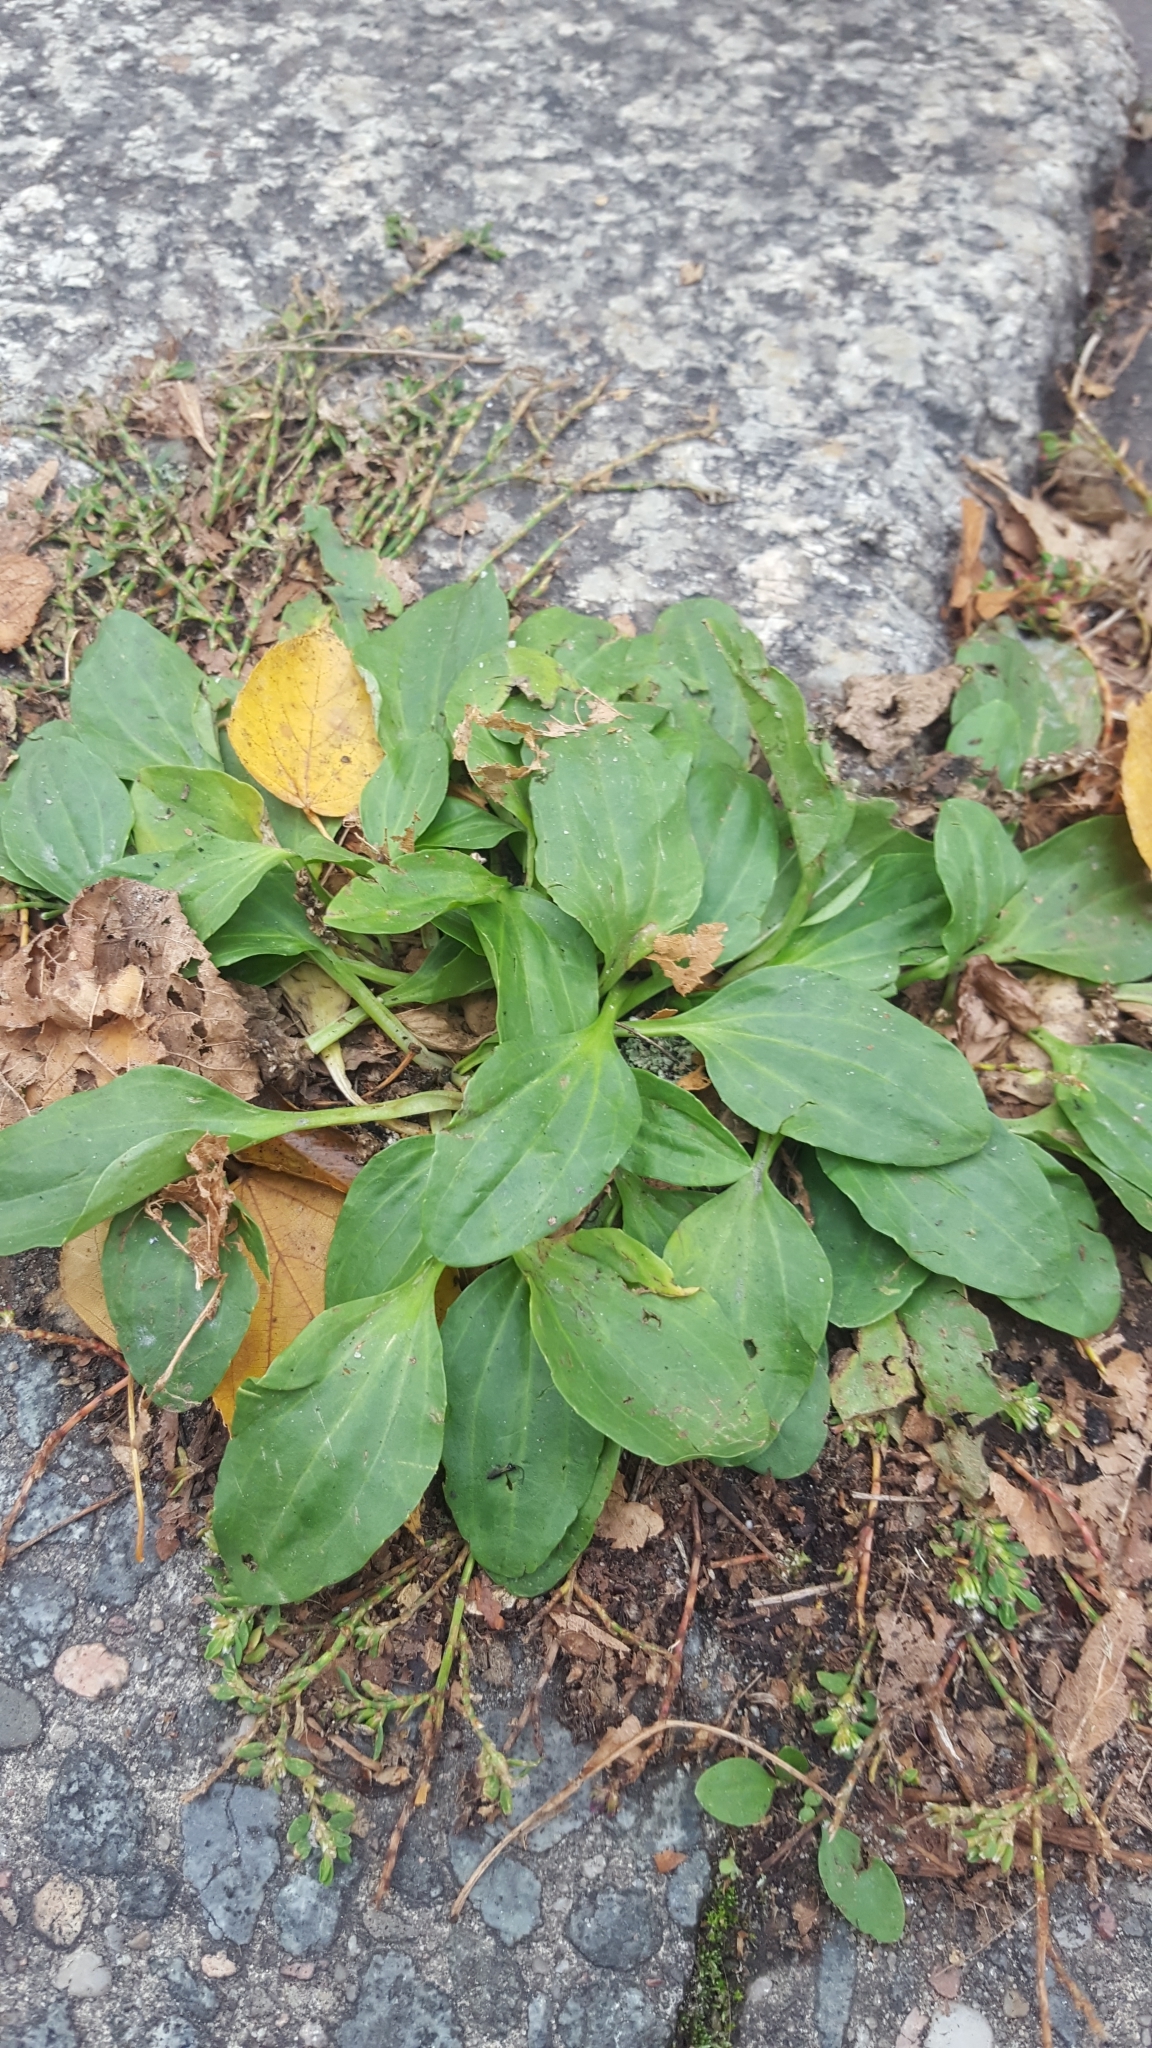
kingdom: Plantae
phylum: Tracheophyta
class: Magnoliopsida
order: Lamiales
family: Plantaginaceae
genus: Plantago
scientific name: Plantago major
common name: Common plantain
